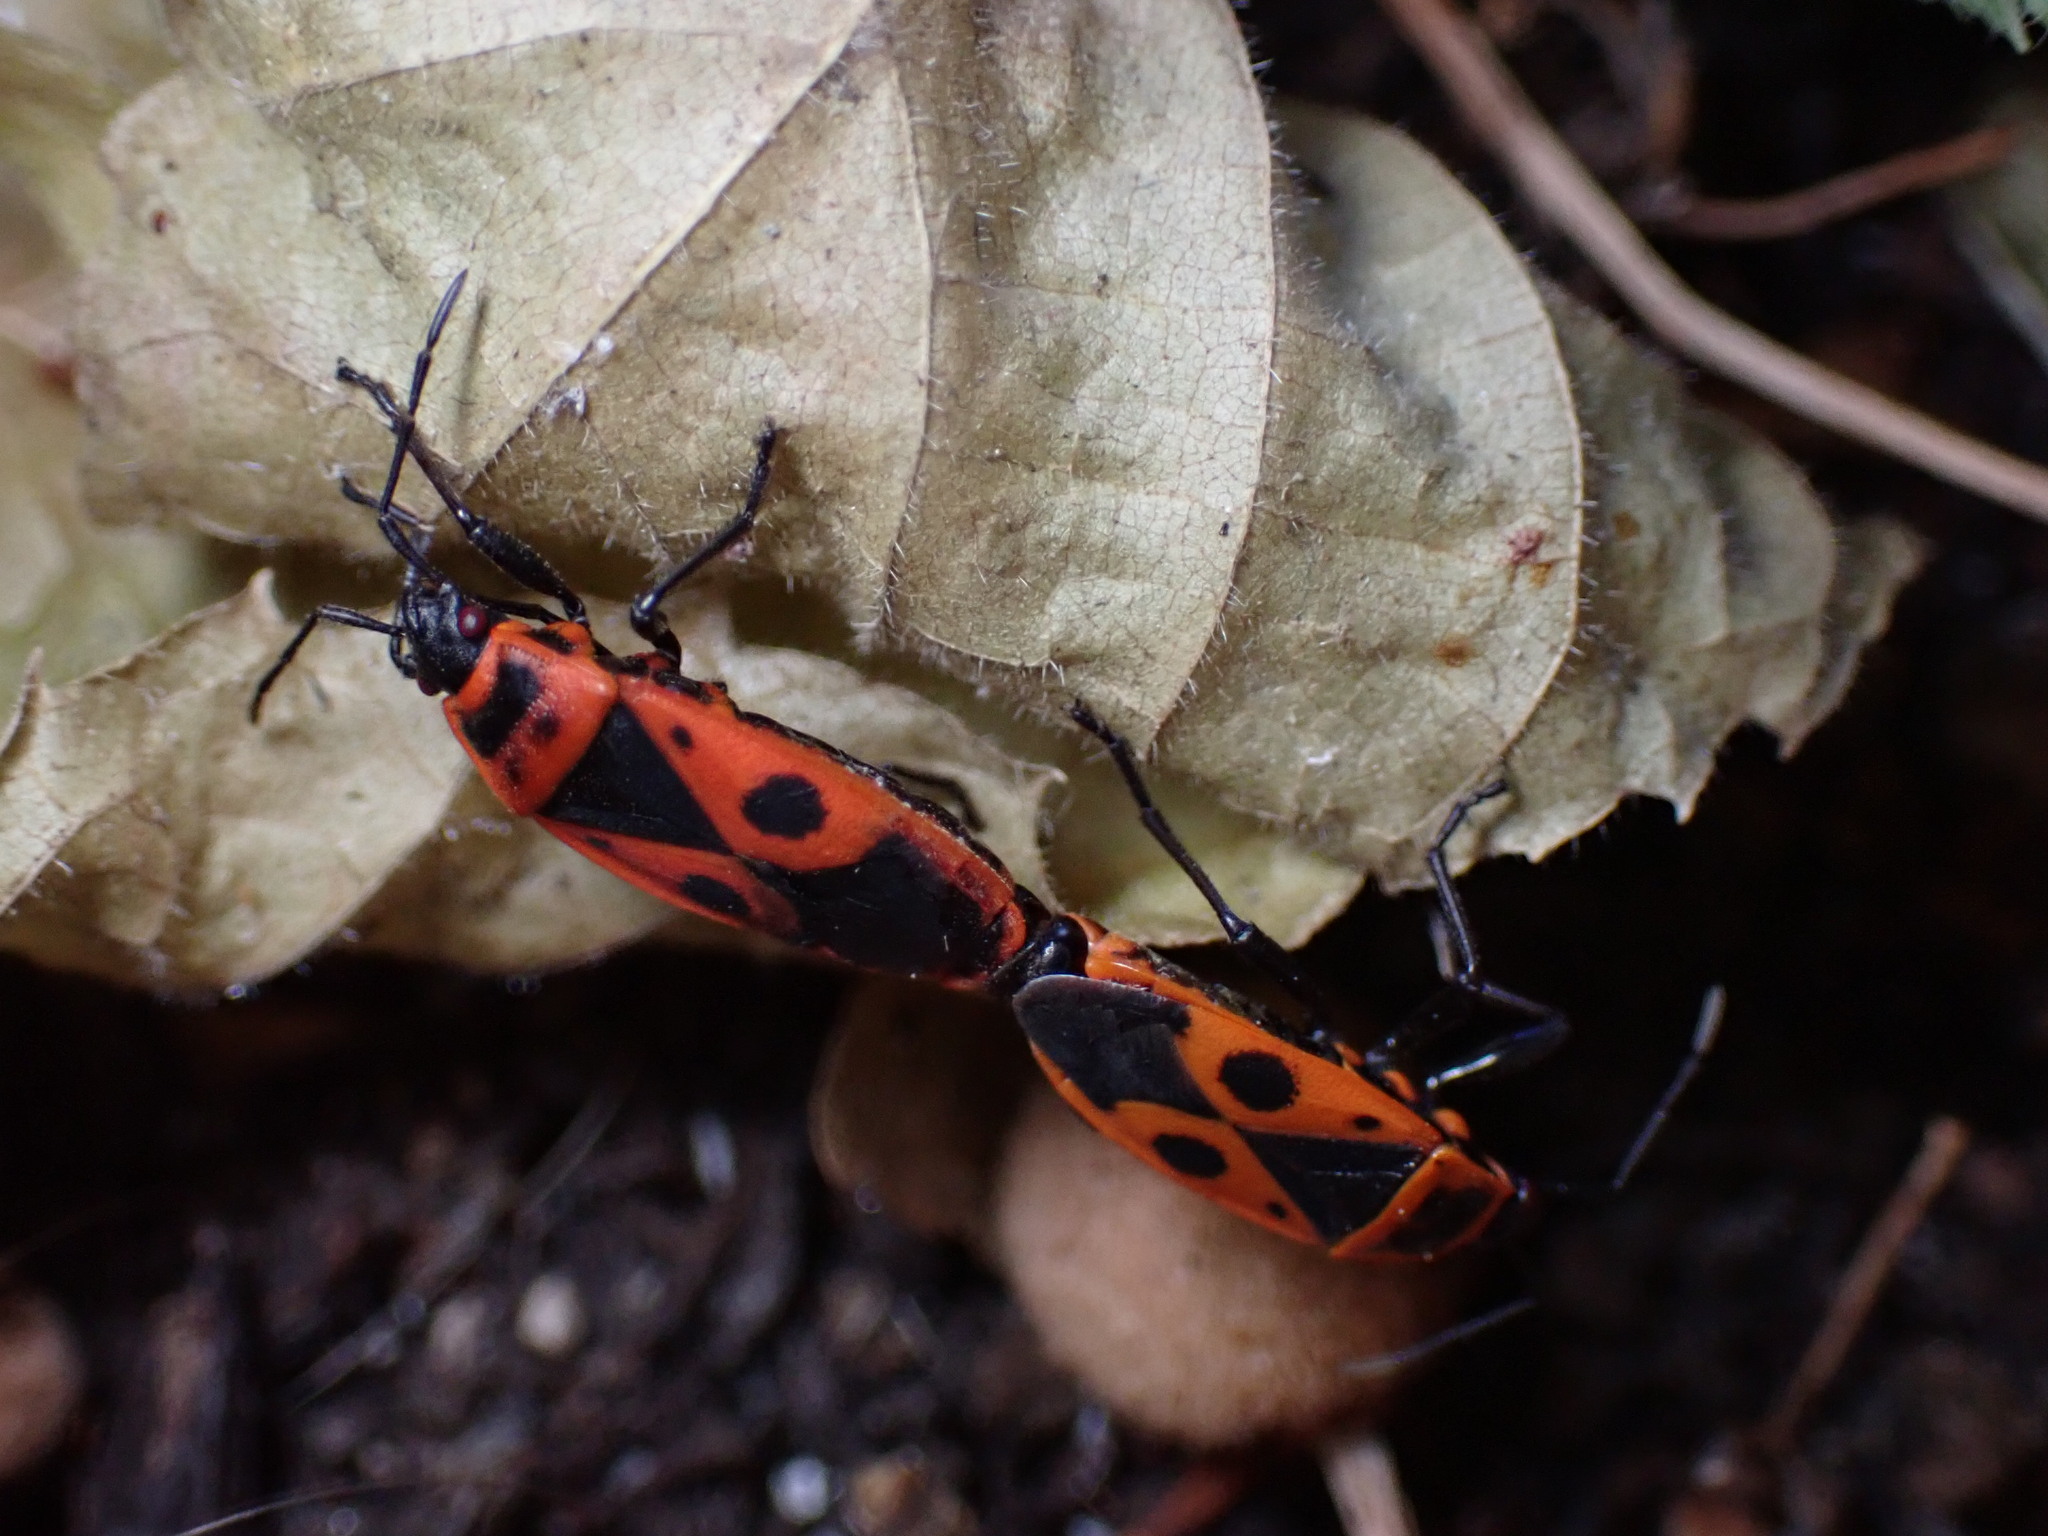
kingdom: Animalia
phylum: Arthropoda
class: Insecta
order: Hemiptera
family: Pyrrhocoridae
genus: Pyrrhocoris
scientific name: Pyrrhocoris apterus
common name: Firebug
